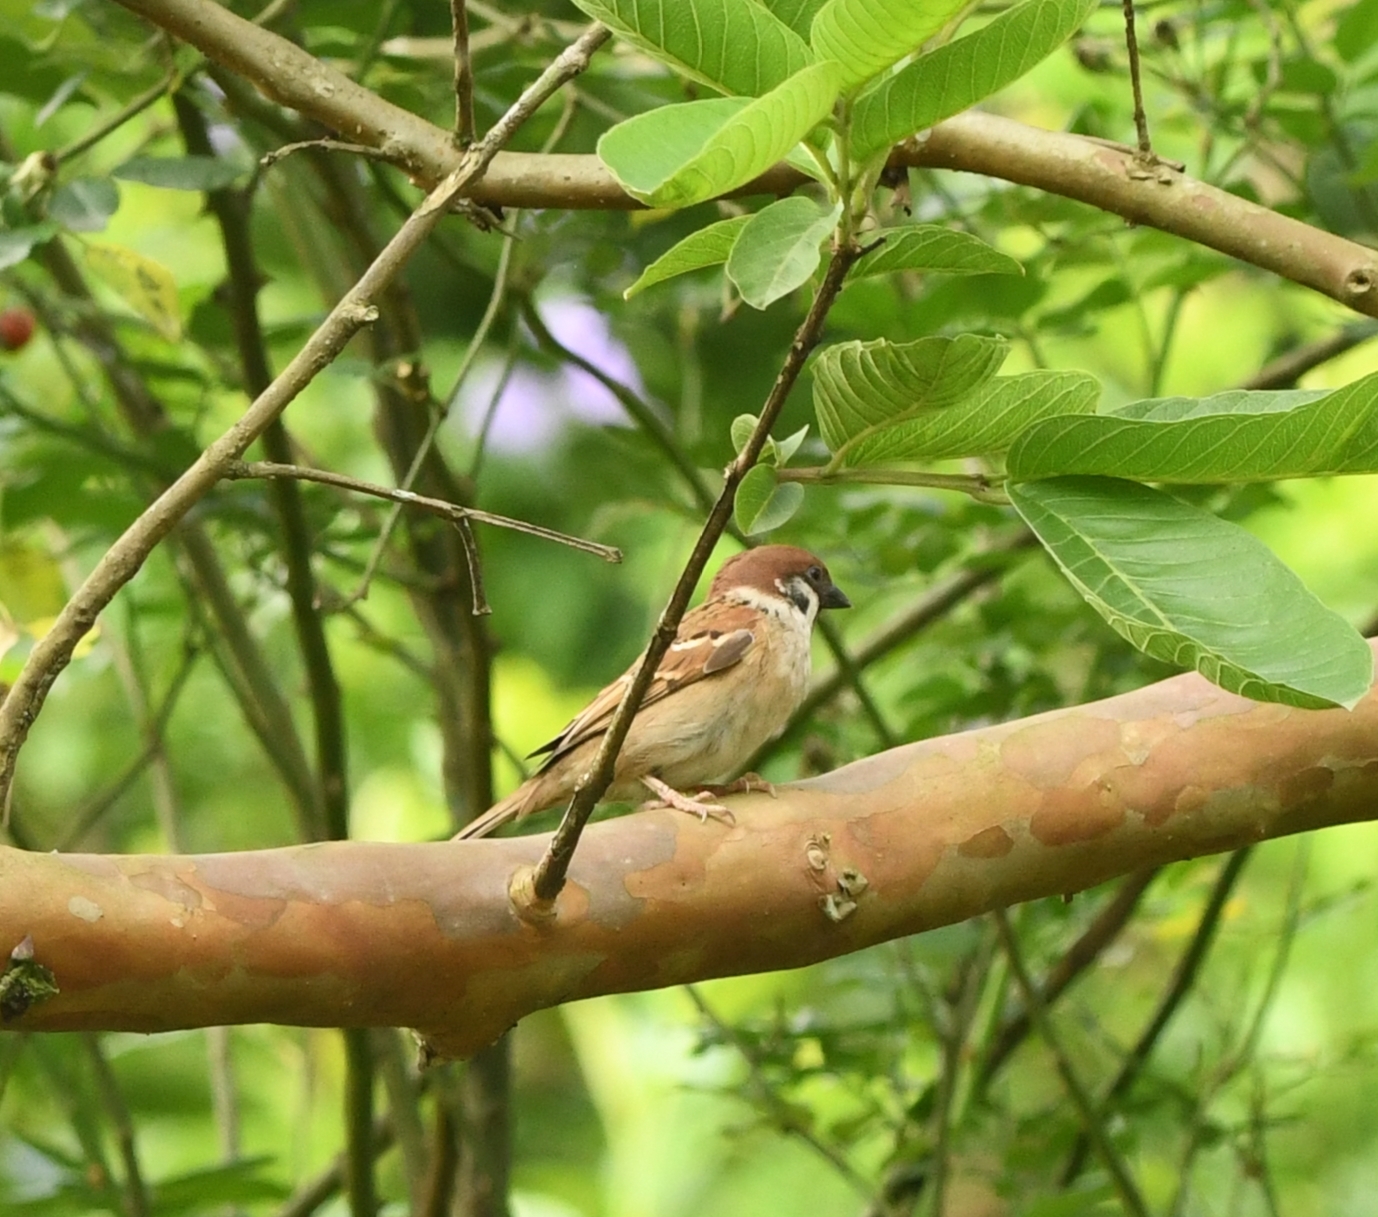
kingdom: Animalia
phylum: Chordata
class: Aves
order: Passeriformes
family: Passeridae
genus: Passer
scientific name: Passer montanus
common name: Eurasian tree sparrow
